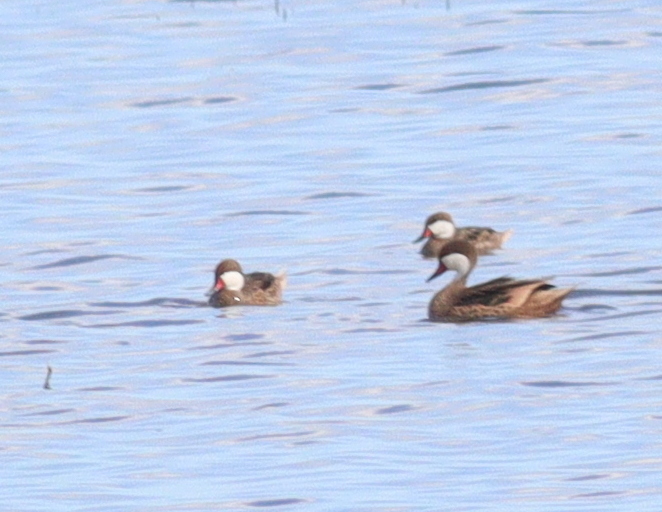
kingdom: Animalia
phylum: Chordata
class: Aves
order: Anseriformes
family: Anatidae
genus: Anas
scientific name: Anas bahamensis
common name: White-cheeked pintail
